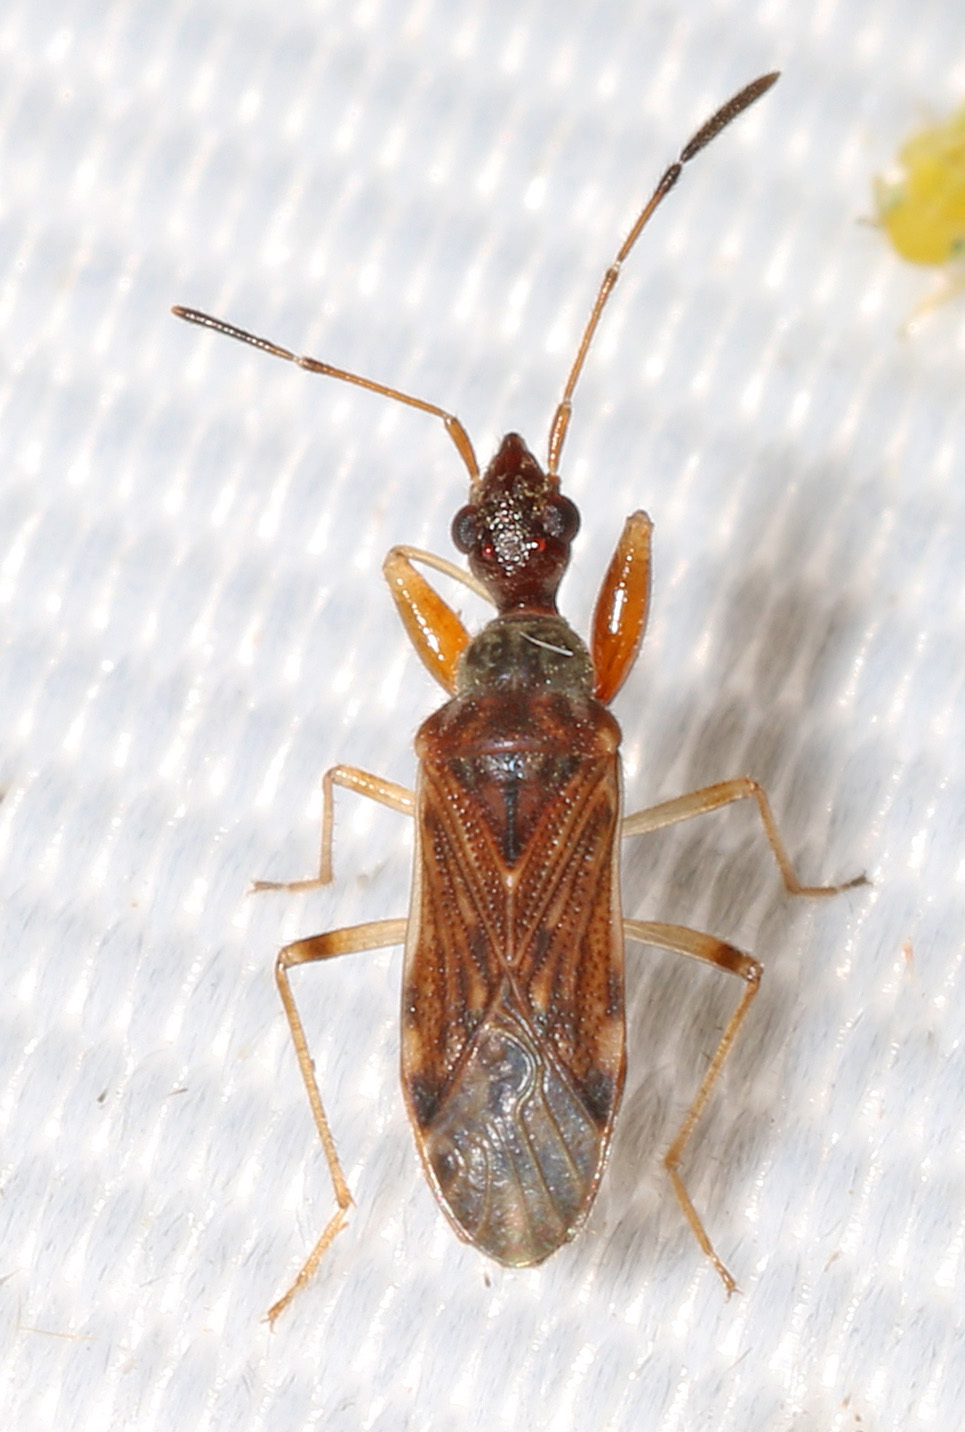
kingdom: Animalia
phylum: Arthropoda
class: Insecta
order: Hemiptera
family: Rhyparochromidae
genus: Heraeus
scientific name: Heraeus plebejus
